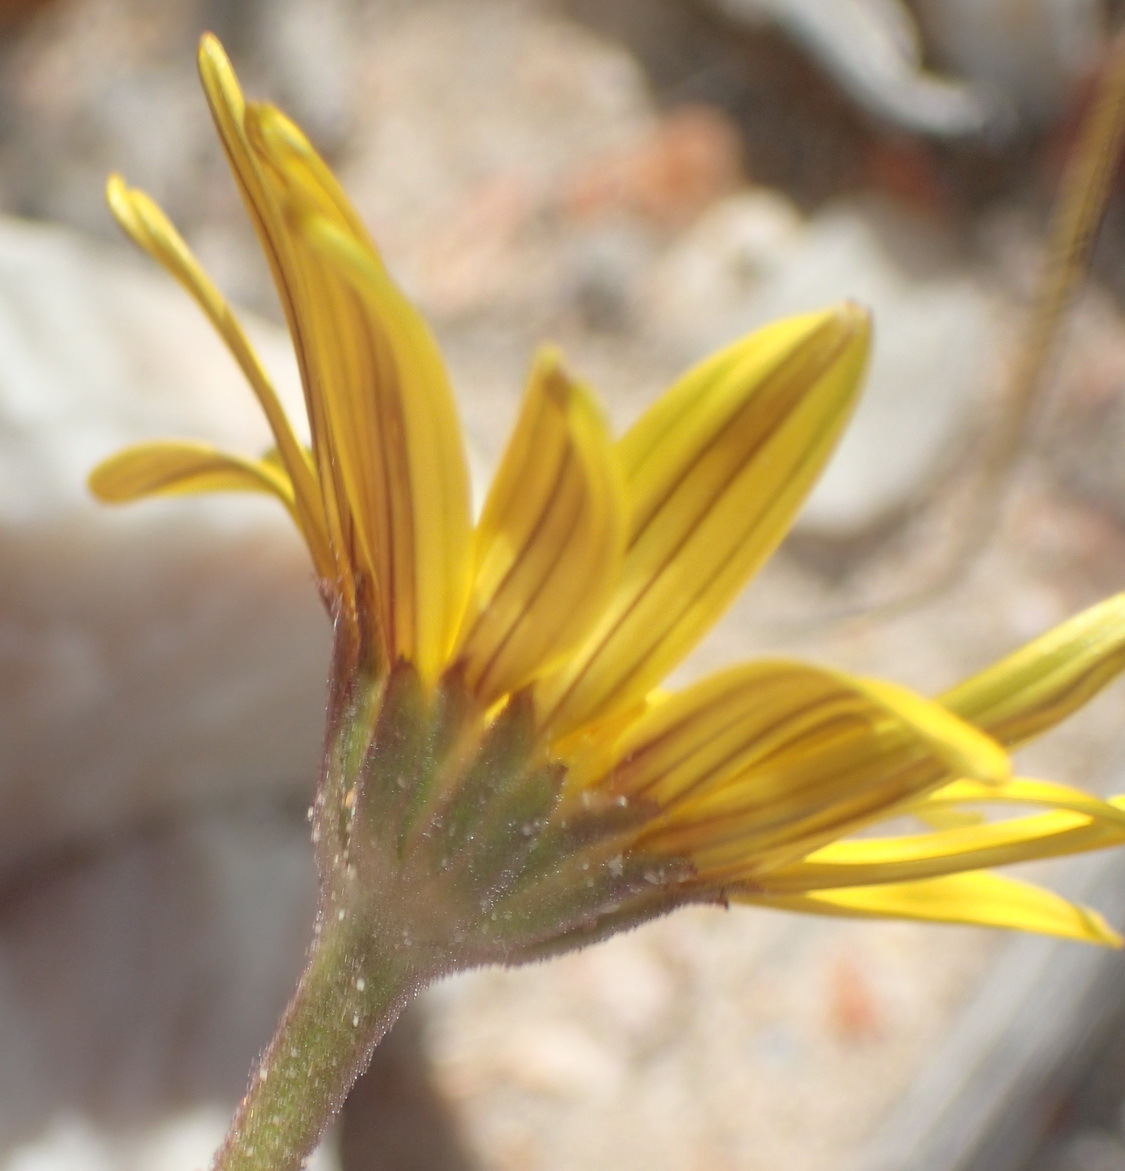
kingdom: Plantae
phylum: Tracheophyta
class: Magnoliopsida
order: Asterales
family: Asteraceae
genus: Osteospermum
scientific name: Osteospermum tomentosum
